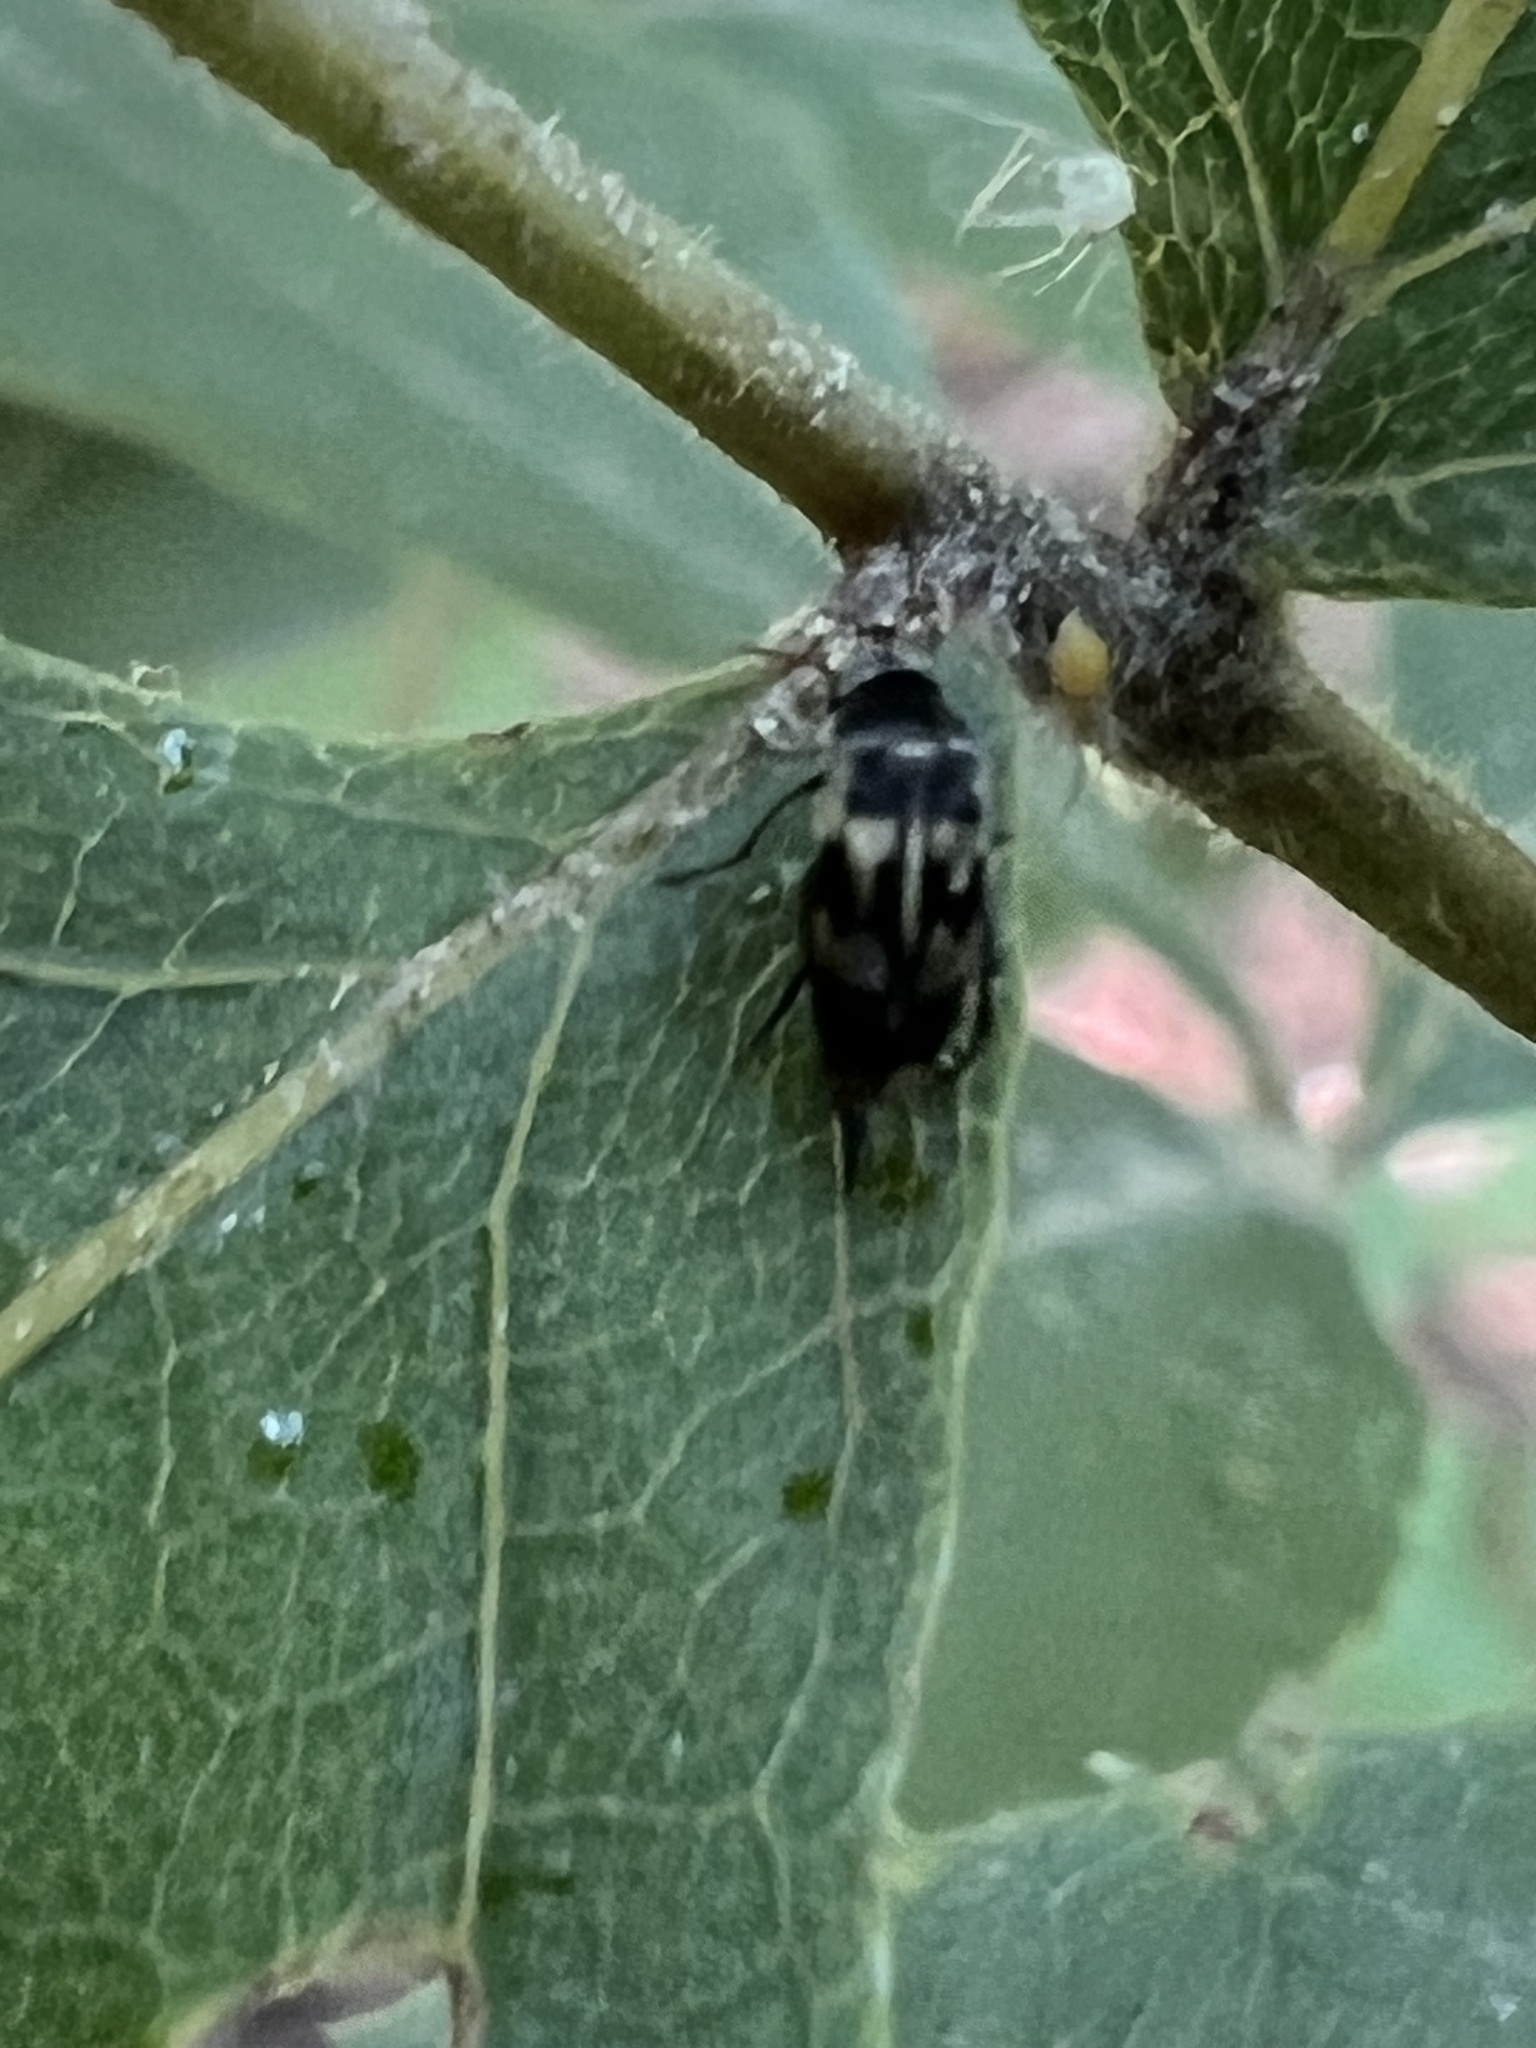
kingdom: Animalia
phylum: Arthropoda
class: Insecta
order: Coleoptera
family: Mordellidae
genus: Falsomordellistena
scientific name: Falsomordellistena pubescens
